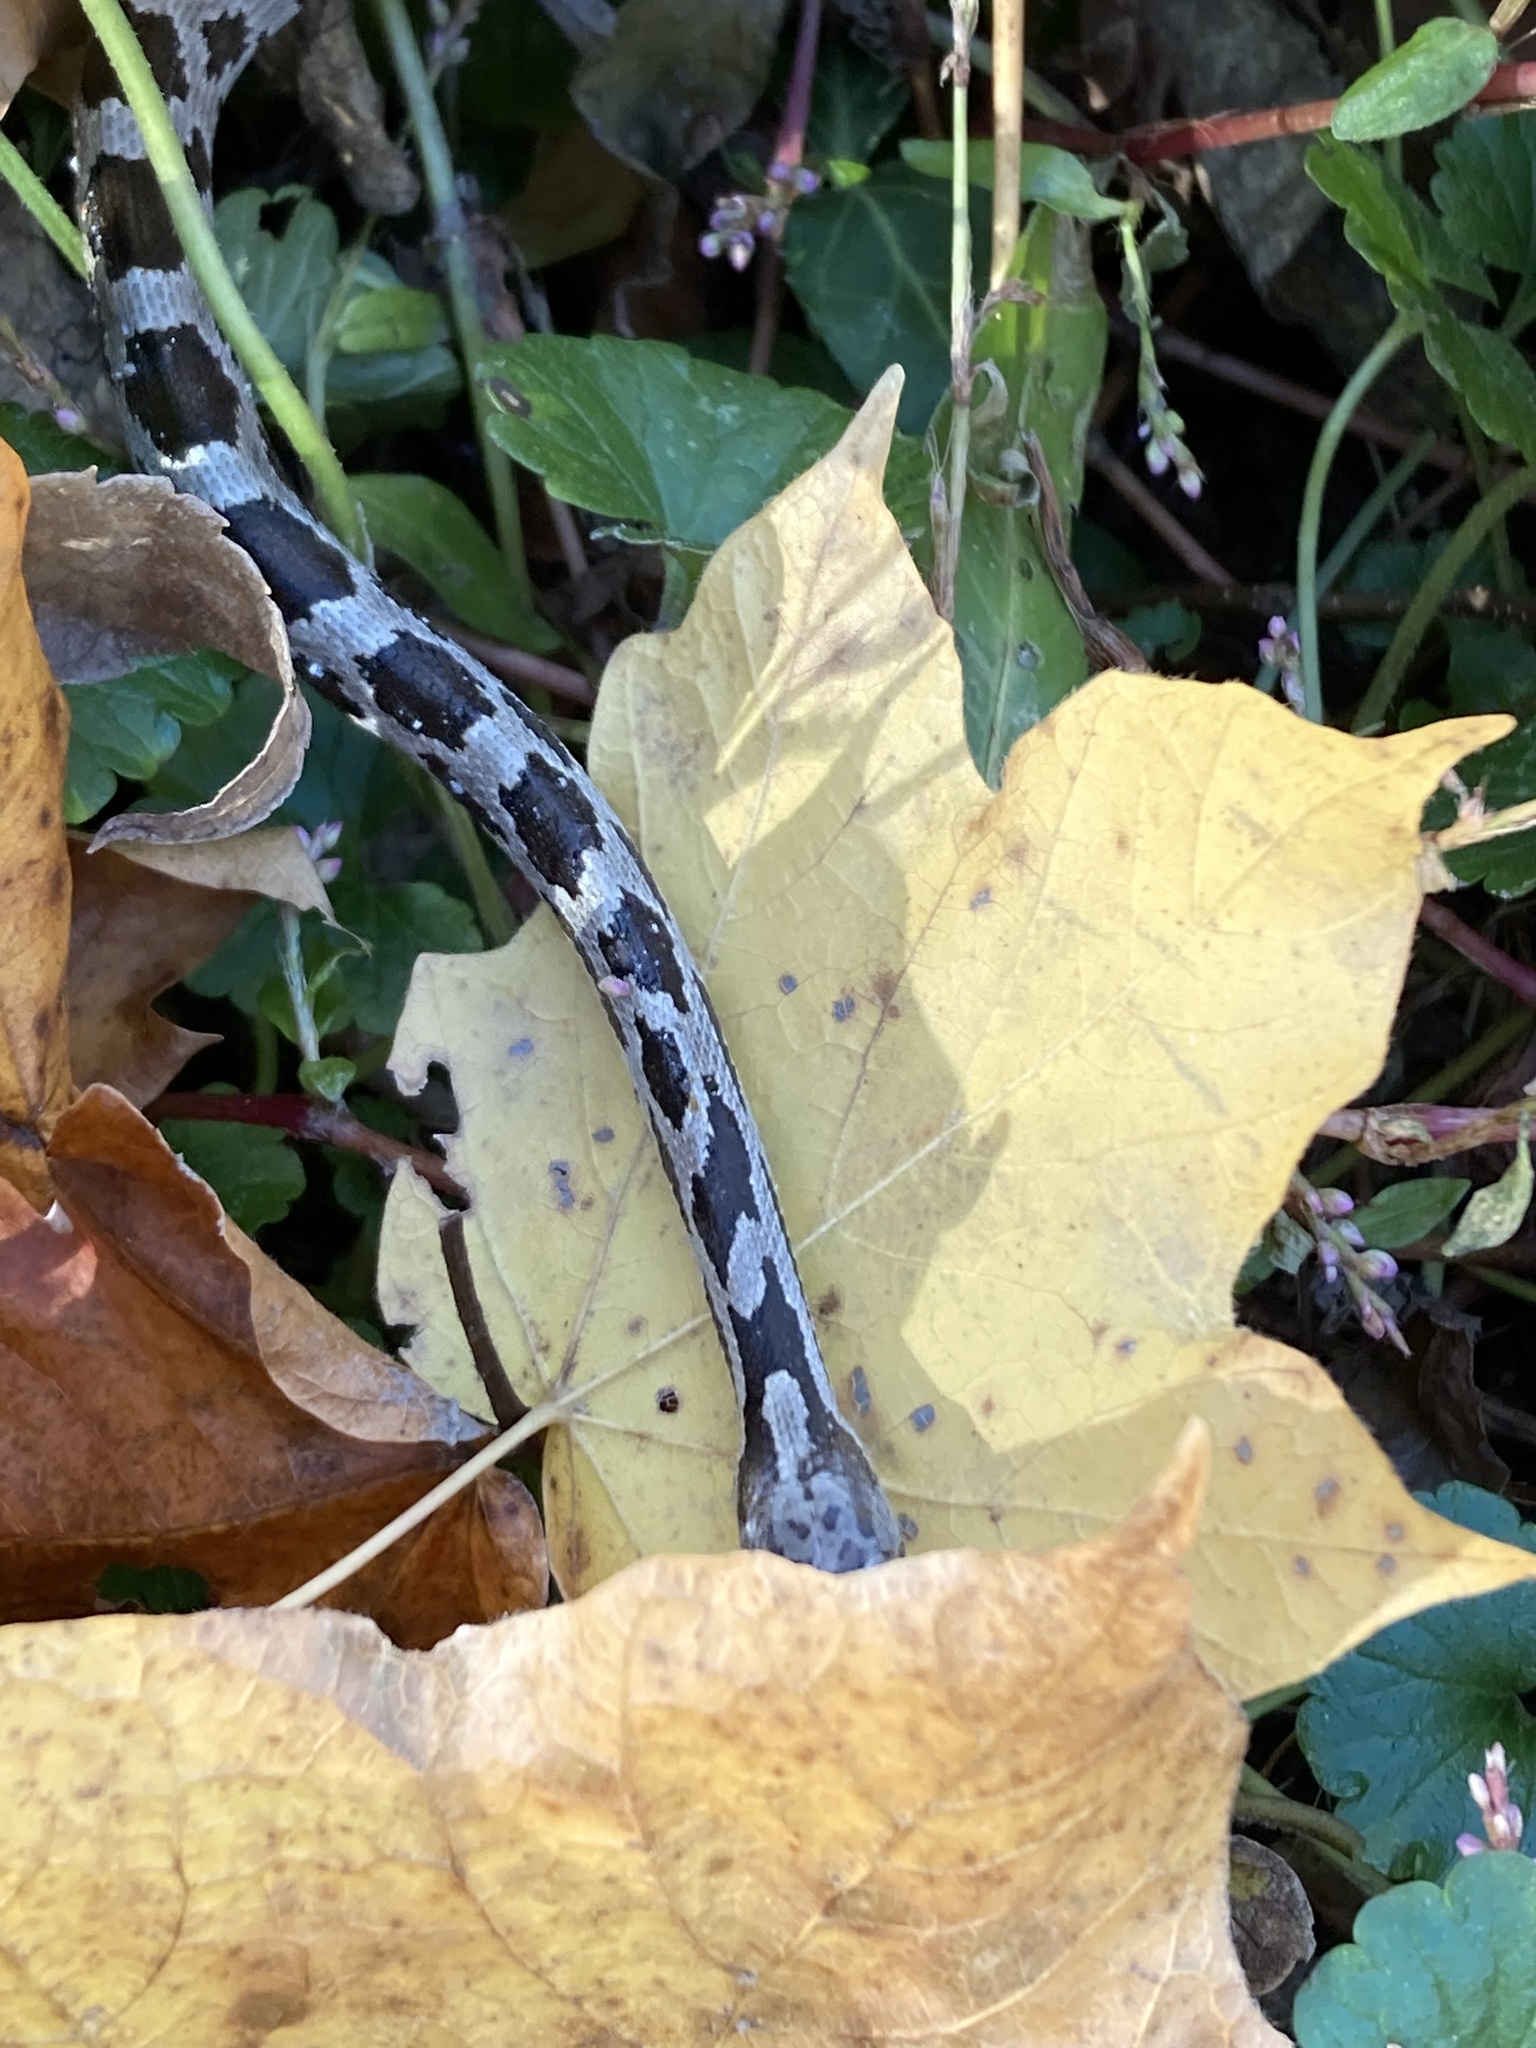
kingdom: Animalia
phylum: Chordata
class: Squamata
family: Colubridae
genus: Pantherophis
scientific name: Pantherophis spiloides
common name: Gray rat snake
